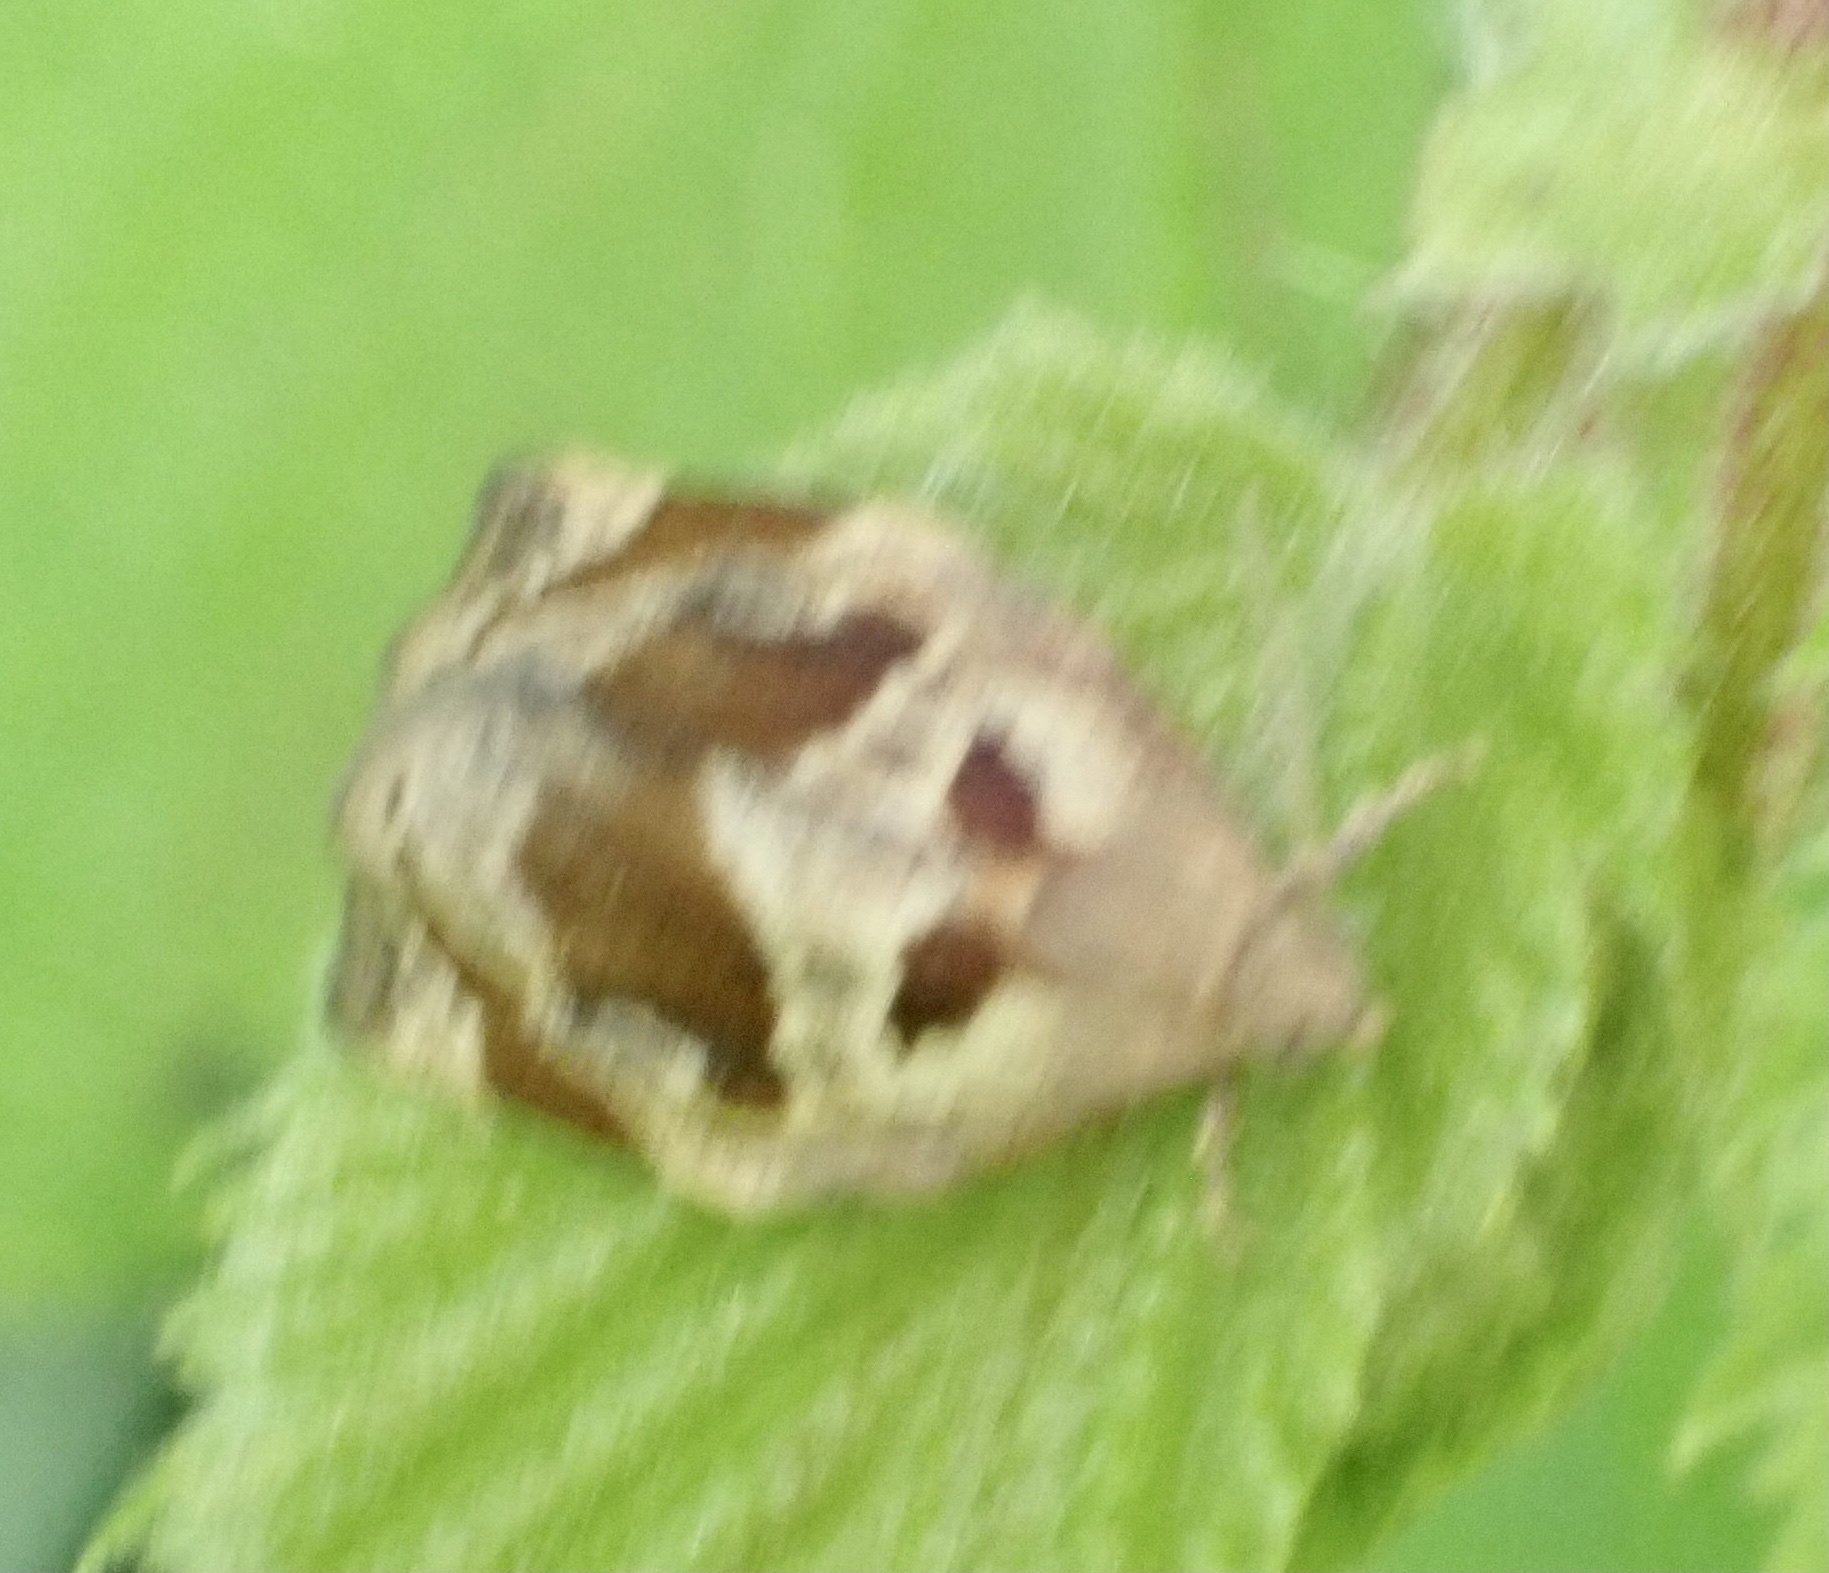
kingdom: Animalia
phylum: Arthropoda
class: Insecta
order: Lepidoptera
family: Tortricidae
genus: Archips
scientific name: Archips crataegana
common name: Brown oak tortrix
